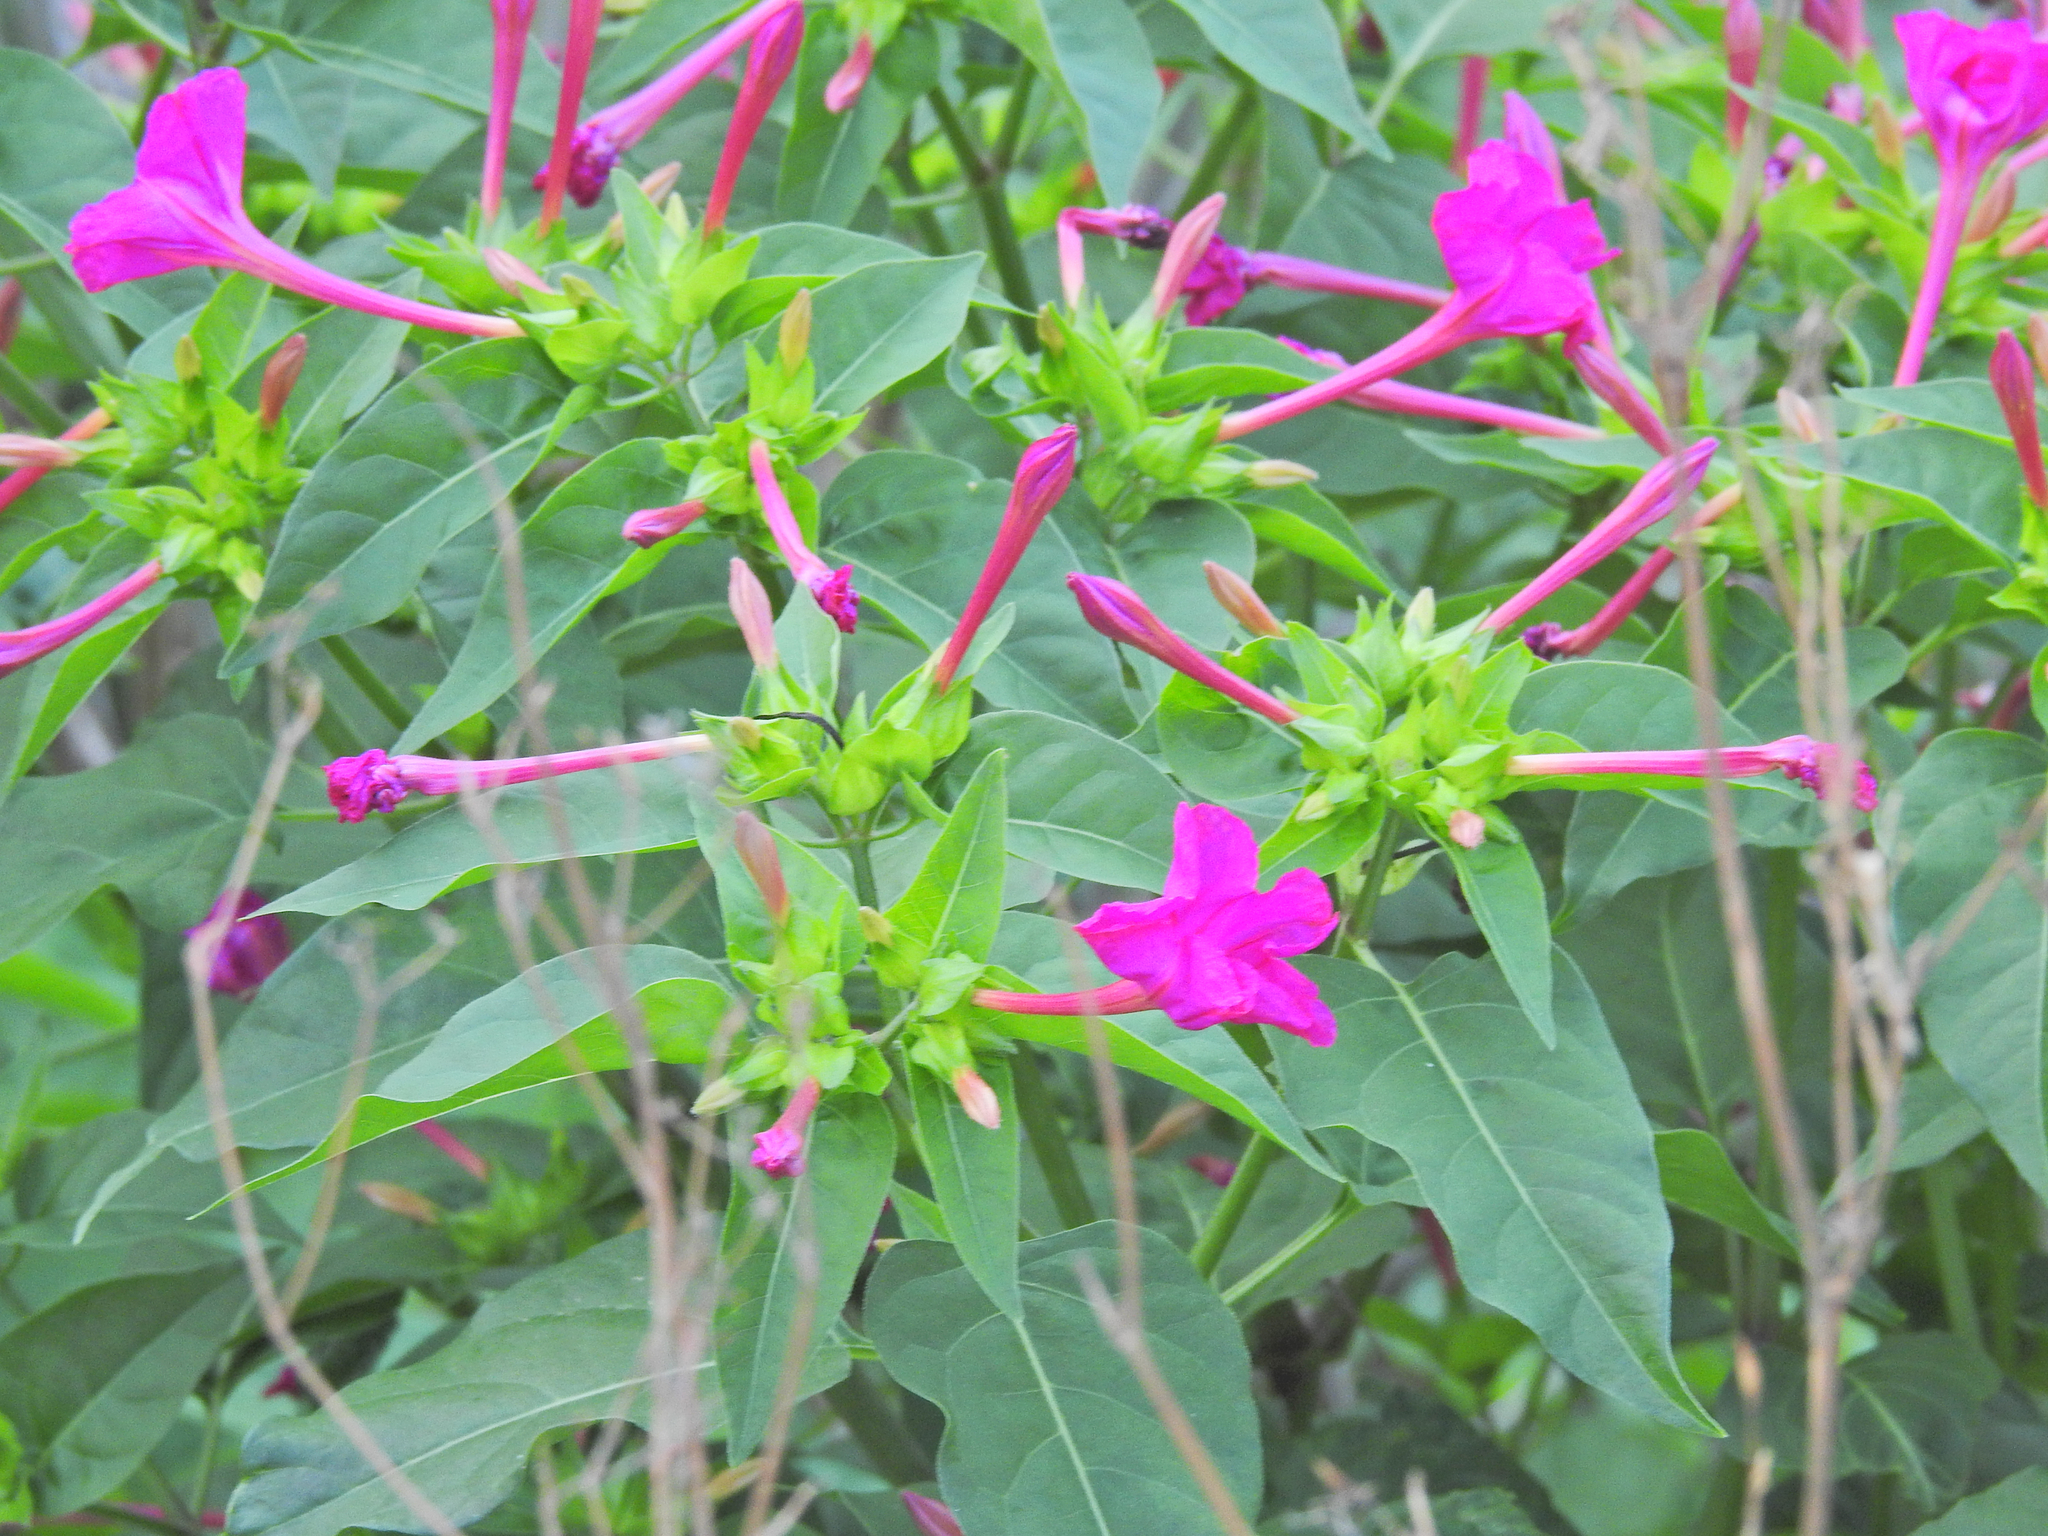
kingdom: Plantae
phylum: Tracheophyta
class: Magnoliopsida
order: Caryophyllales
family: Nyctaginaceae
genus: Mirabilis
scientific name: Mirabilis jalapa
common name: Marvel-of-peru
